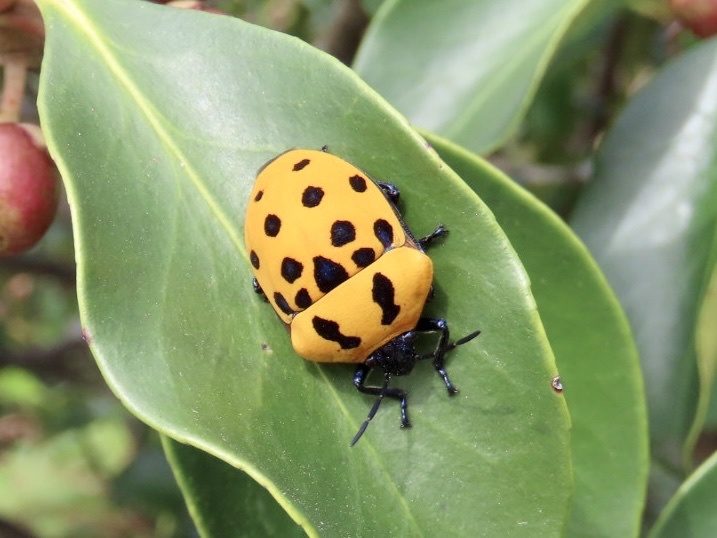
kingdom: Animalia
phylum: Arthropoda
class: Insecta
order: Hemiptera
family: Scutelleridae
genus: Poecilocoris
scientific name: Poecilocoris druraei
